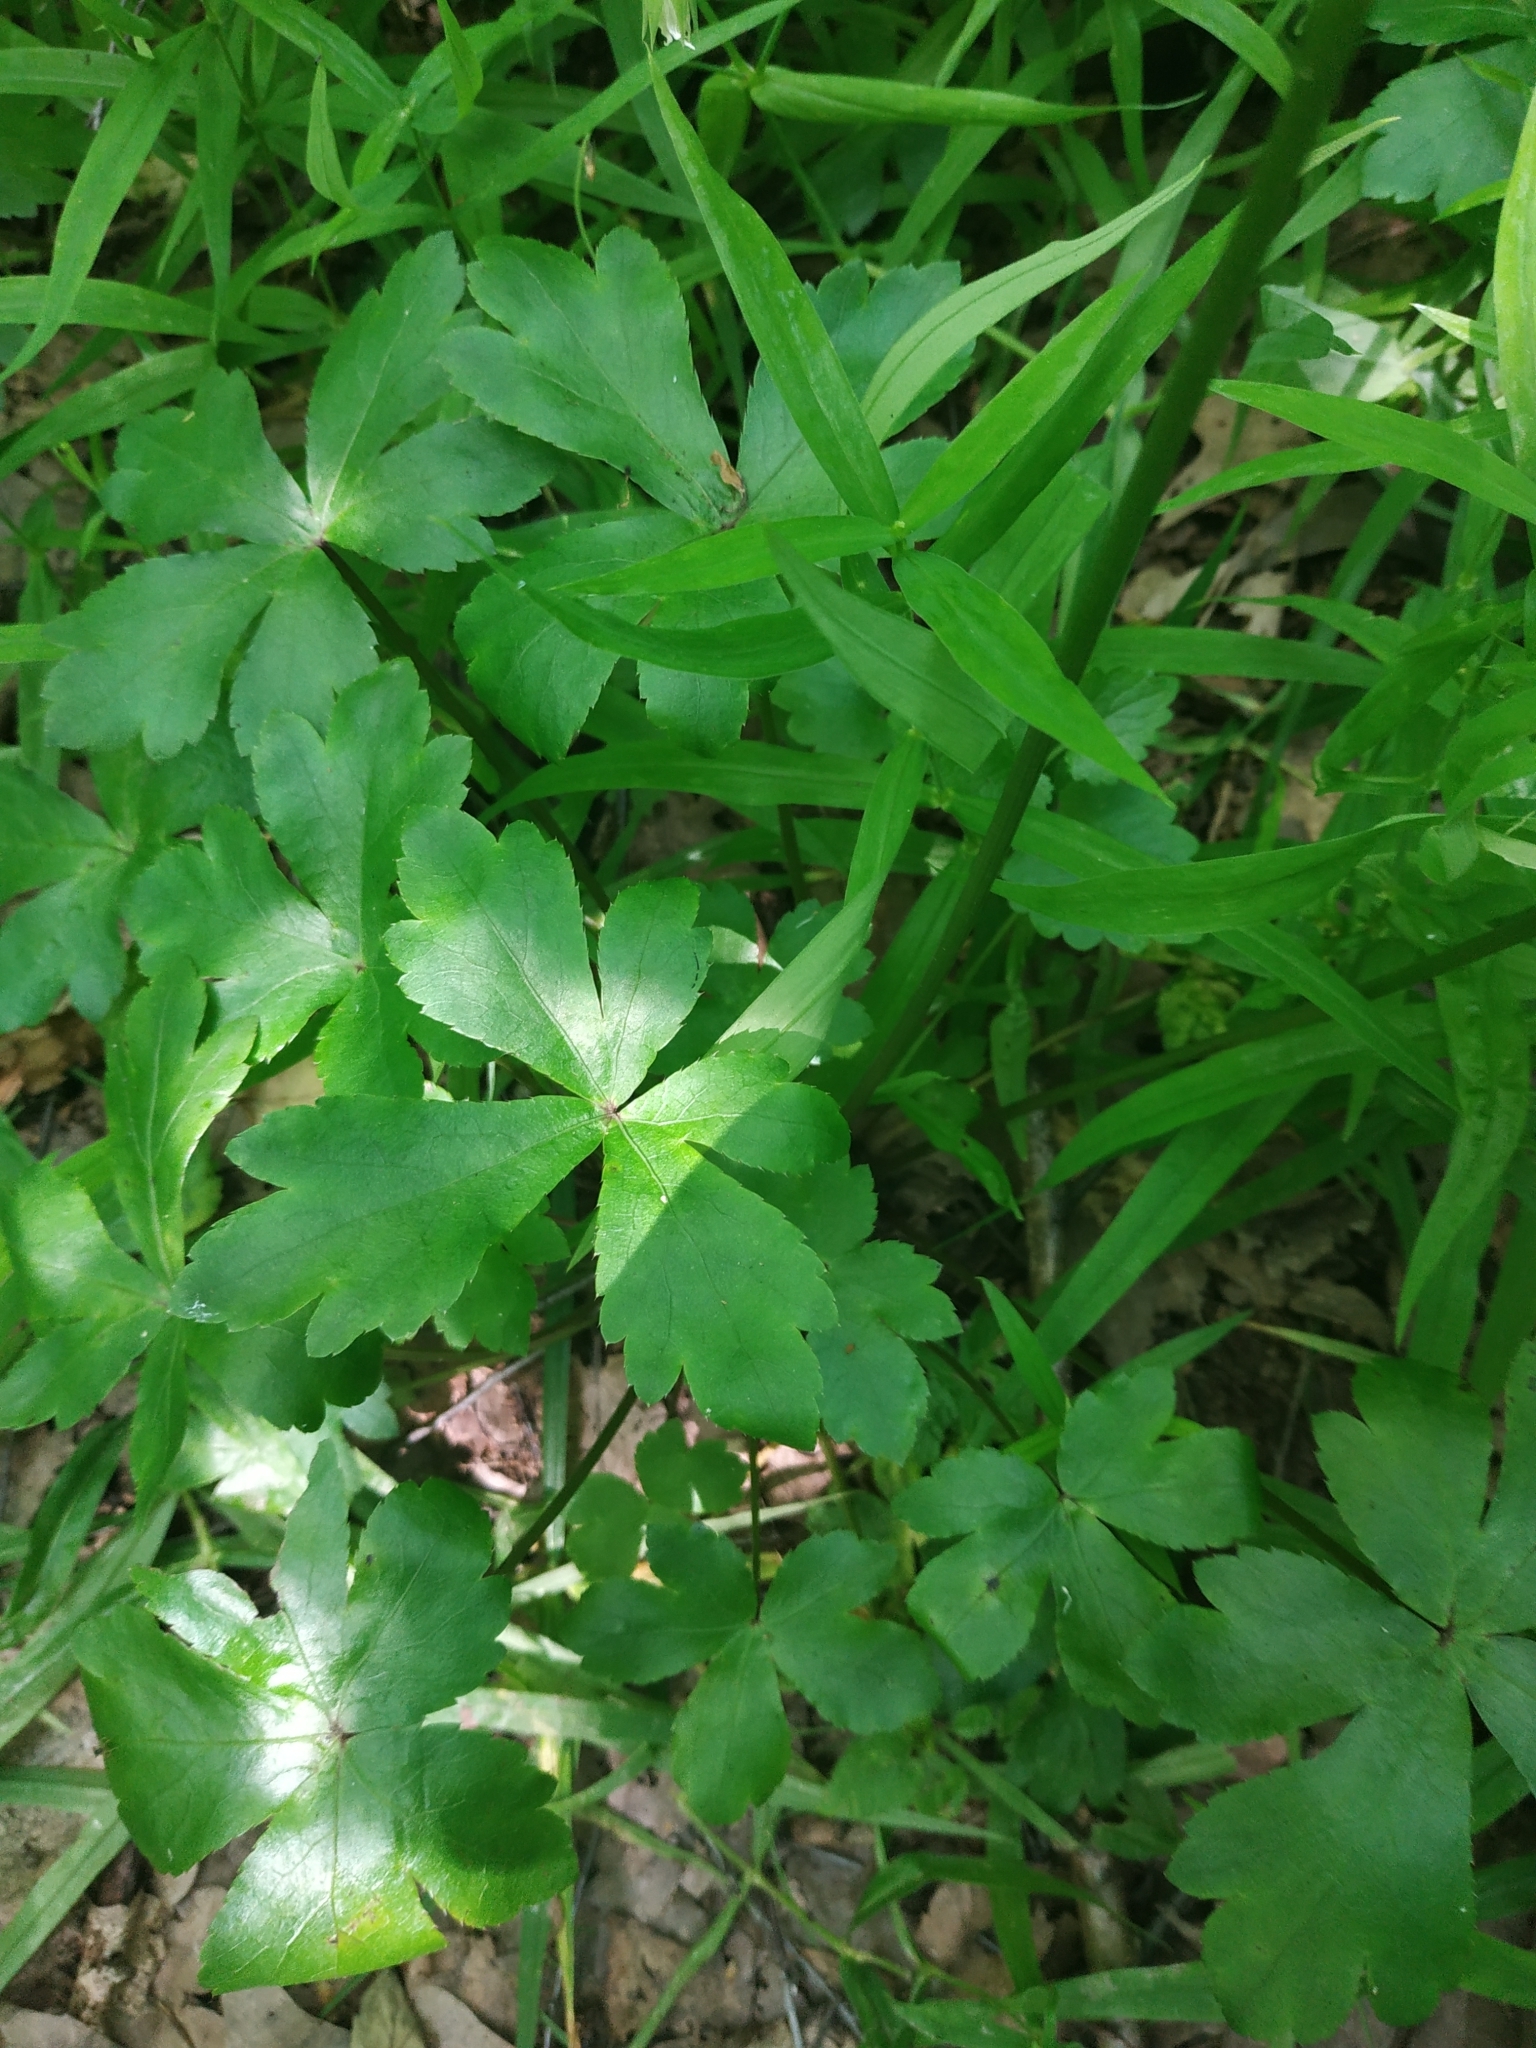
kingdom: Plantae
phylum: Tracheophyta
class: Magnoliopsida
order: Apiales
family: Apiaceae
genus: Sanicula
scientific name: Sanicula europaea
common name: Sanicle
